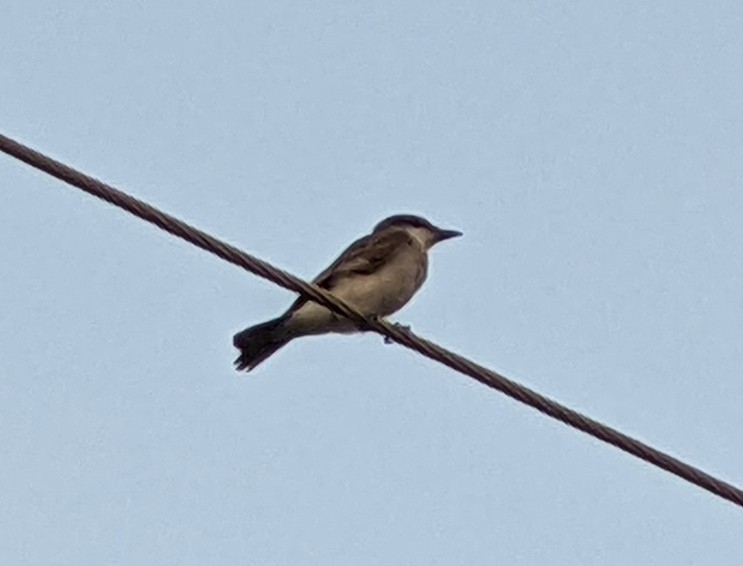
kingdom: Animalia
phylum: Chordata
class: Aves
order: Passeriformes
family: Tyrannidae
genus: Tyrannus
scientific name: Tyrannus dominicensis
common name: Gray kingbird
